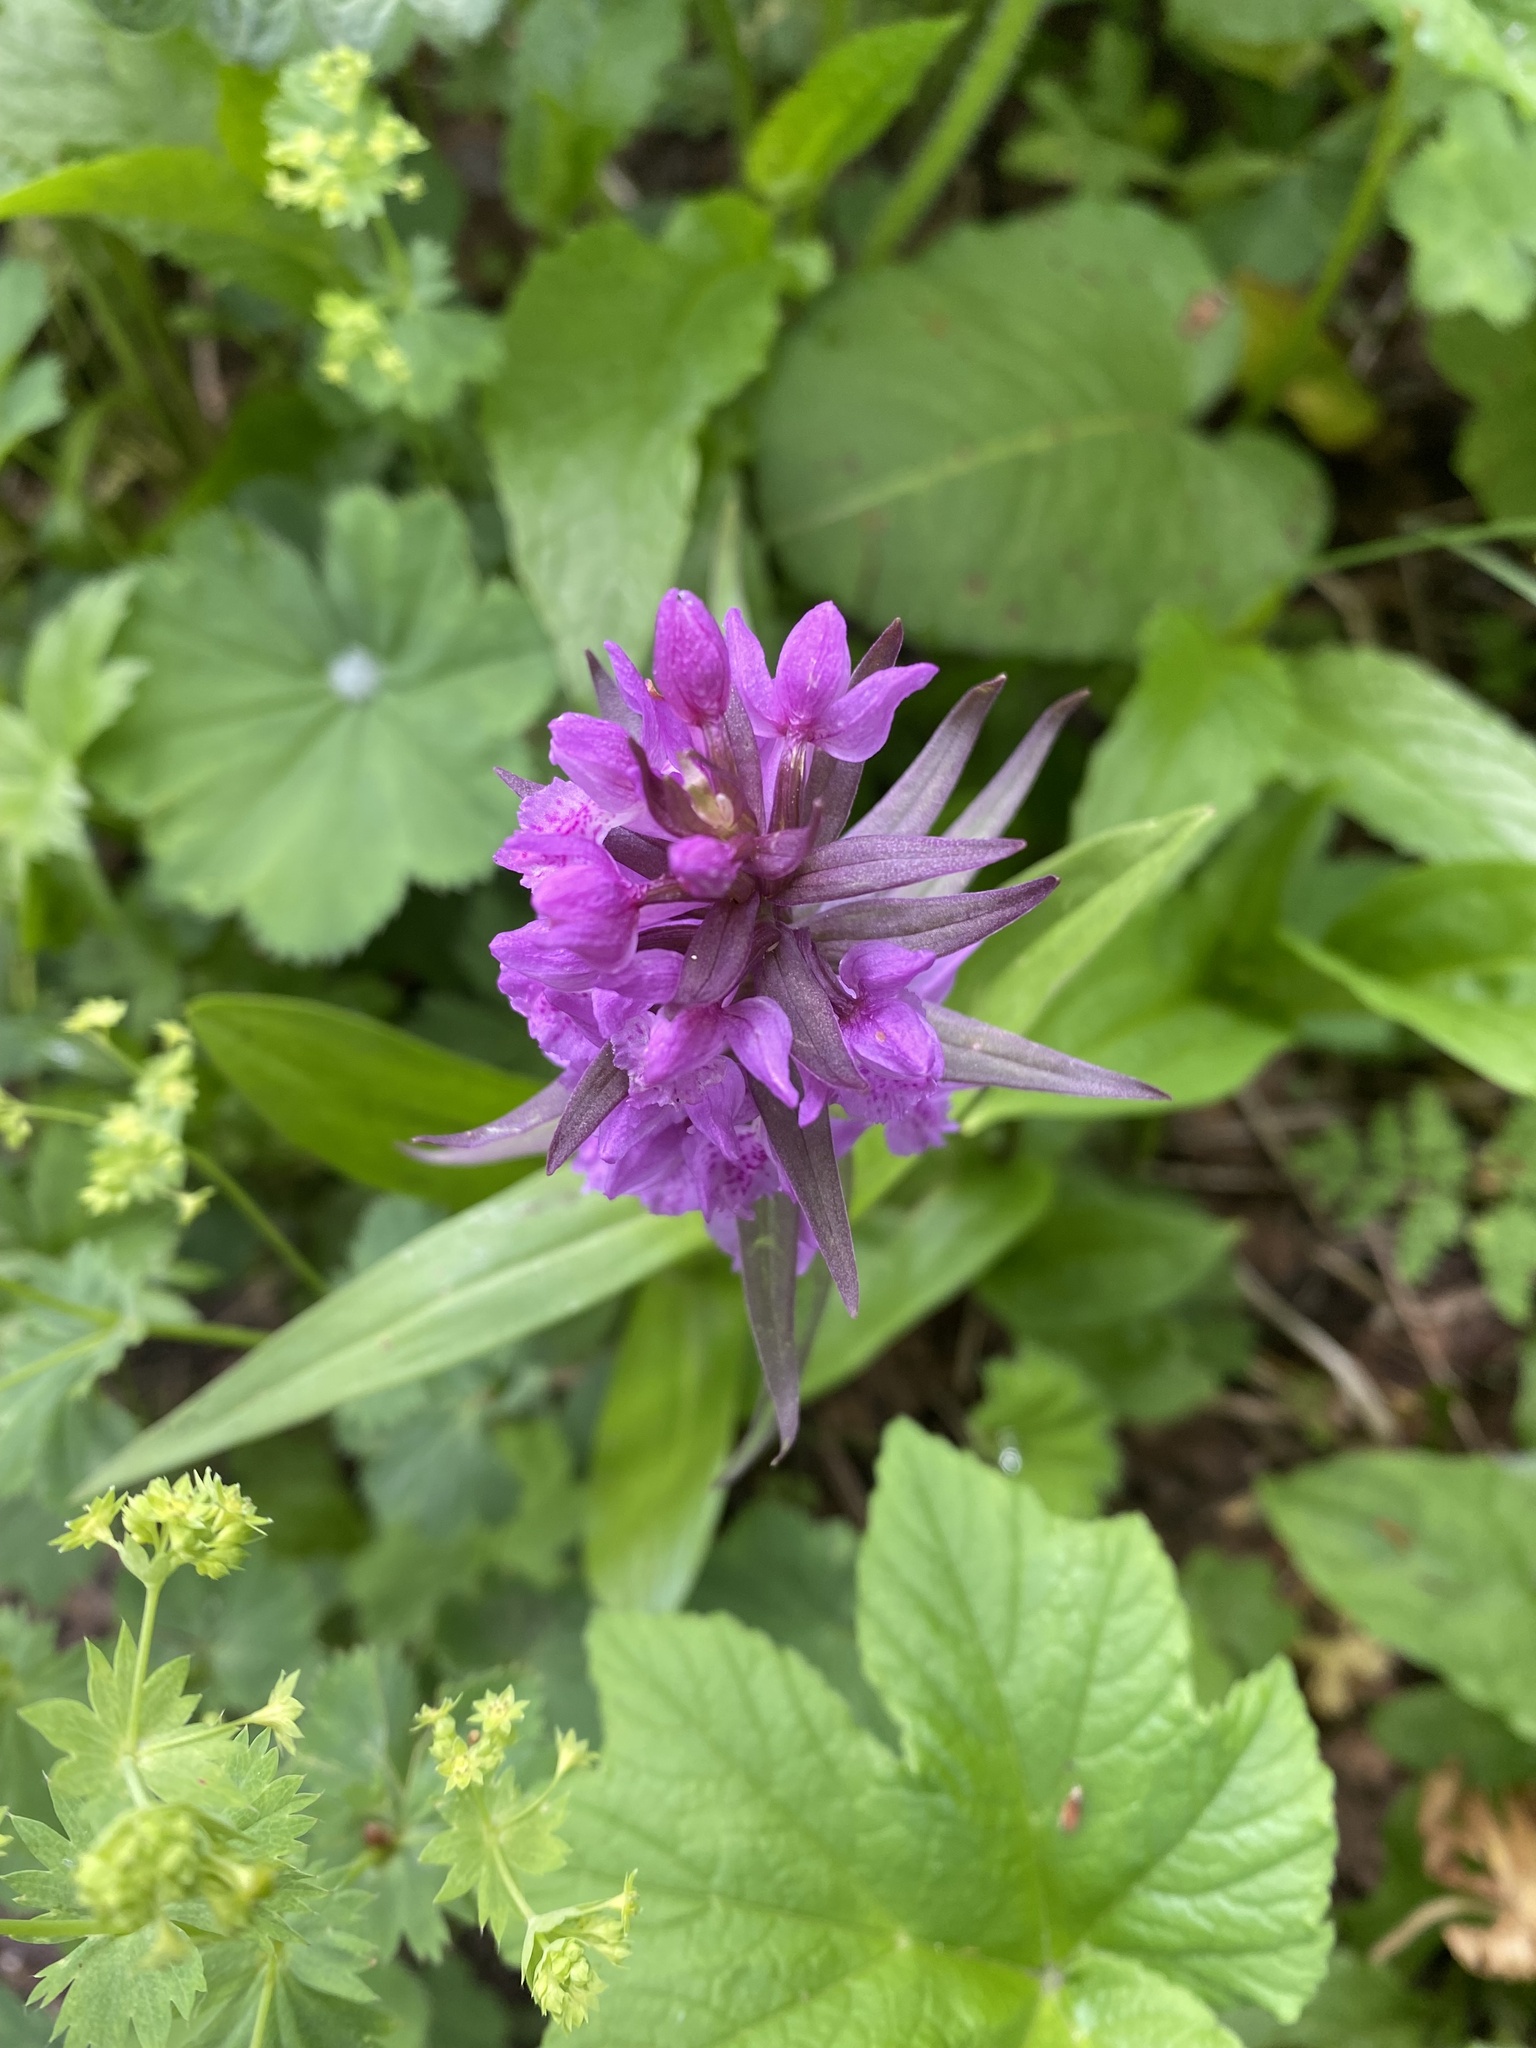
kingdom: Plantae
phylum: Tracheophyta
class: Liliopsida
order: Asparagales
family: Orchidaceae
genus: Dactylorhiza
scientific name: Dactylorhiza euxina
